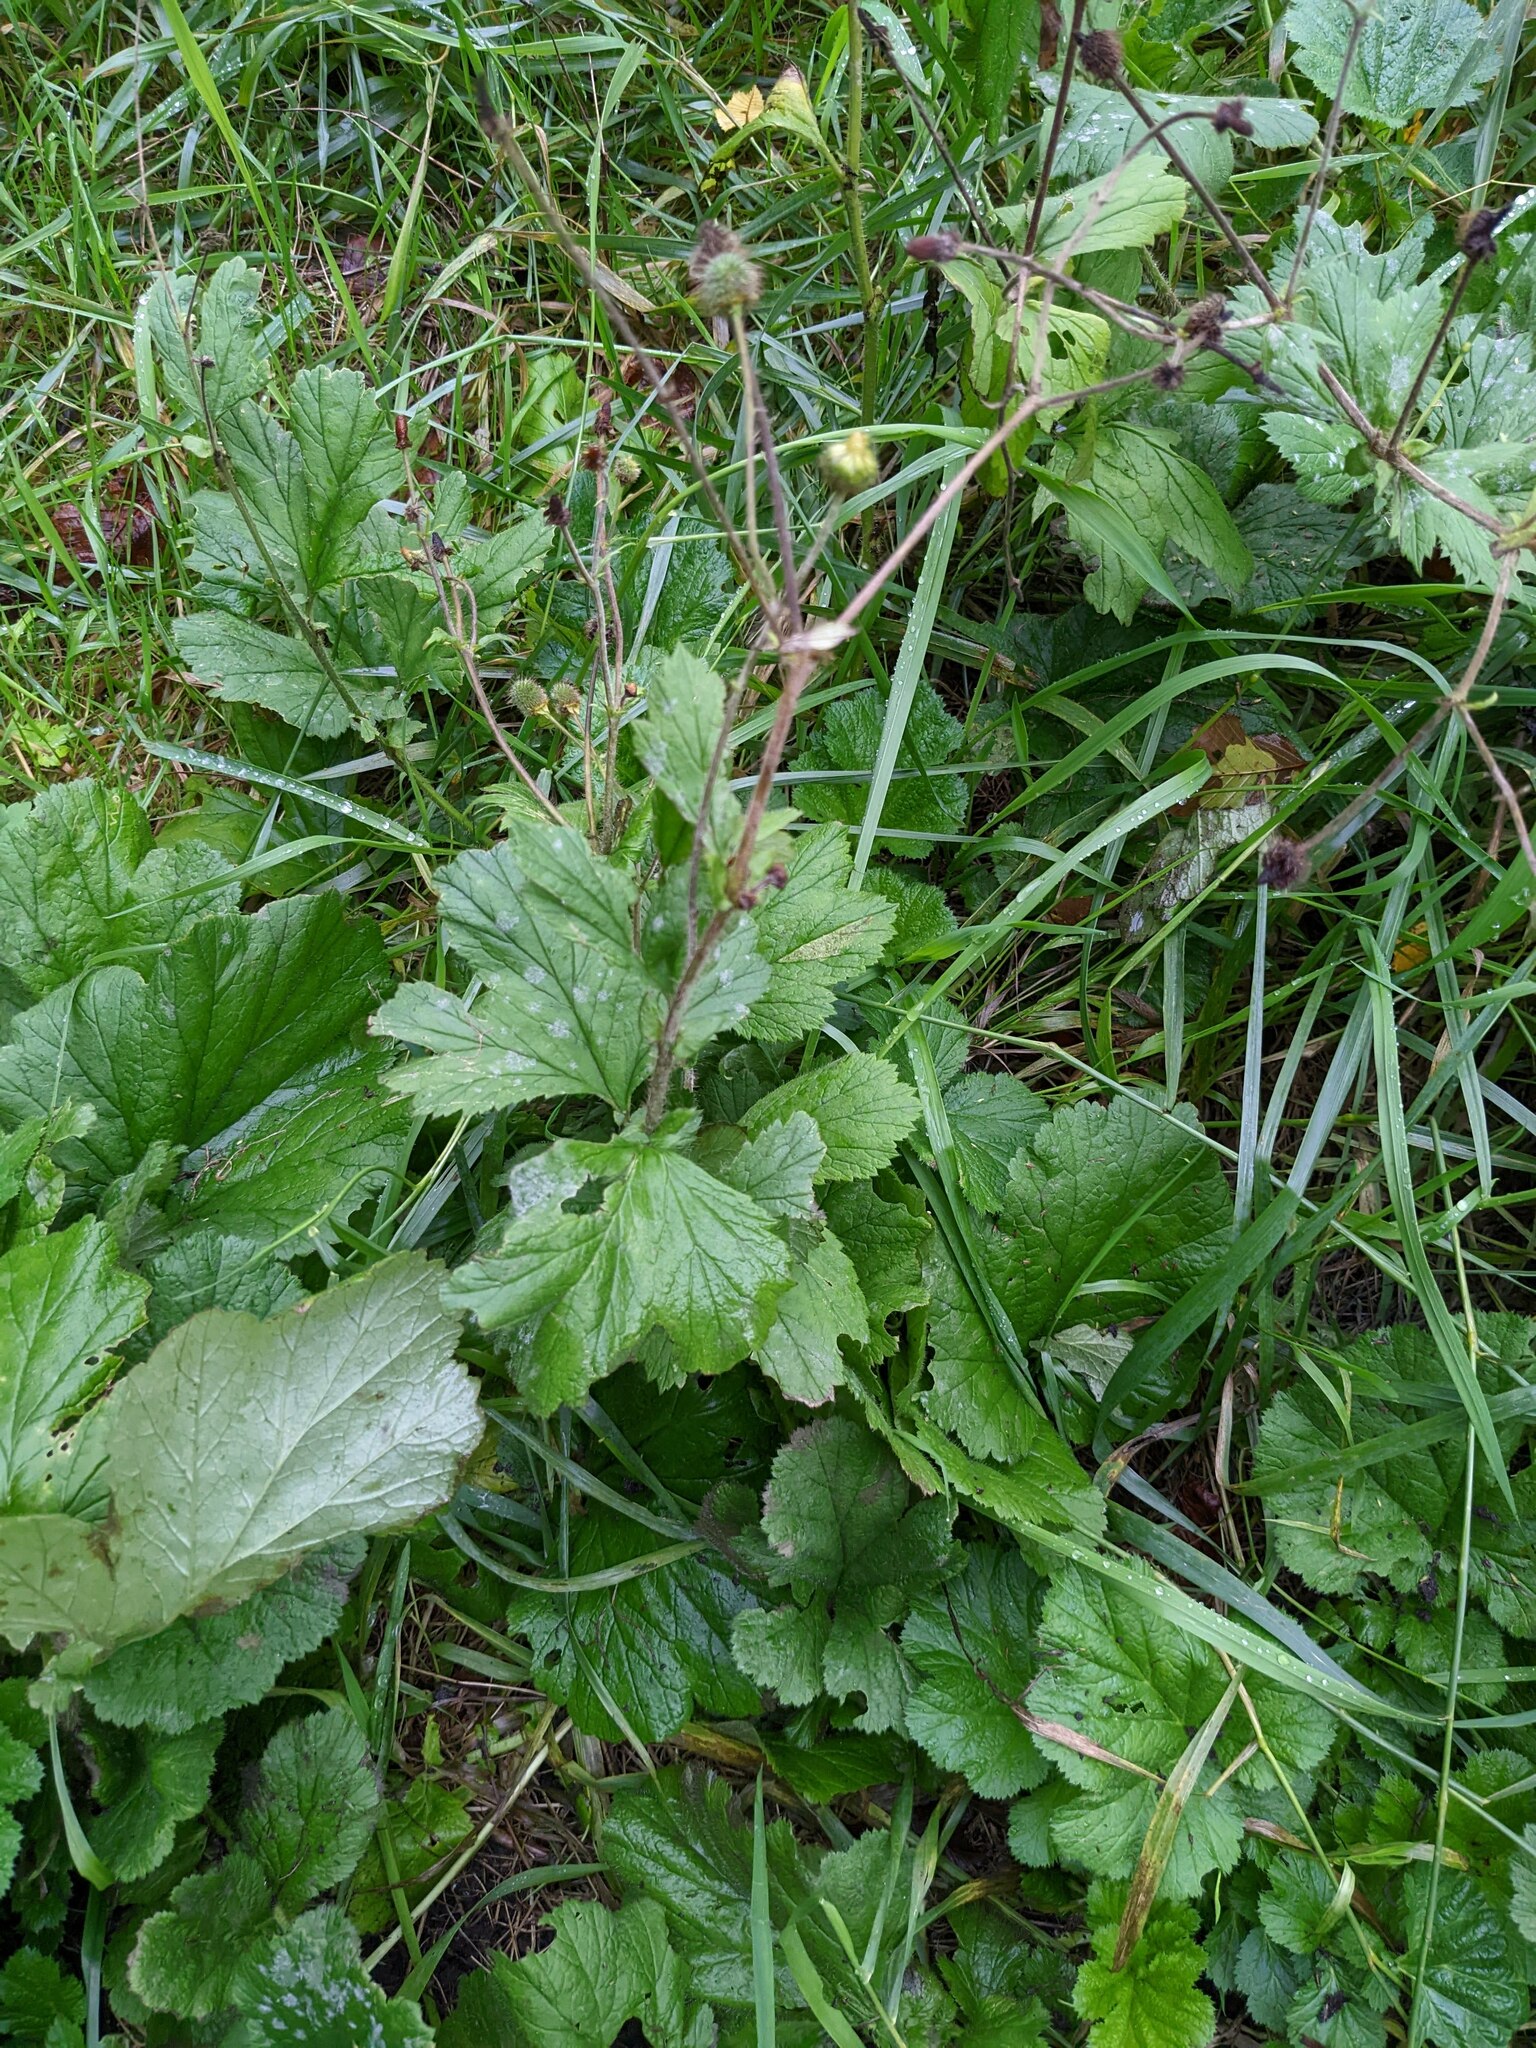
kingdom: Plantae
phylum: Tracheophyta
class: Magnoliopsida
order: Rosales
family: Rosaceae
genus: Geum
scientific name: Geum urbanum
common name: Wood avens
